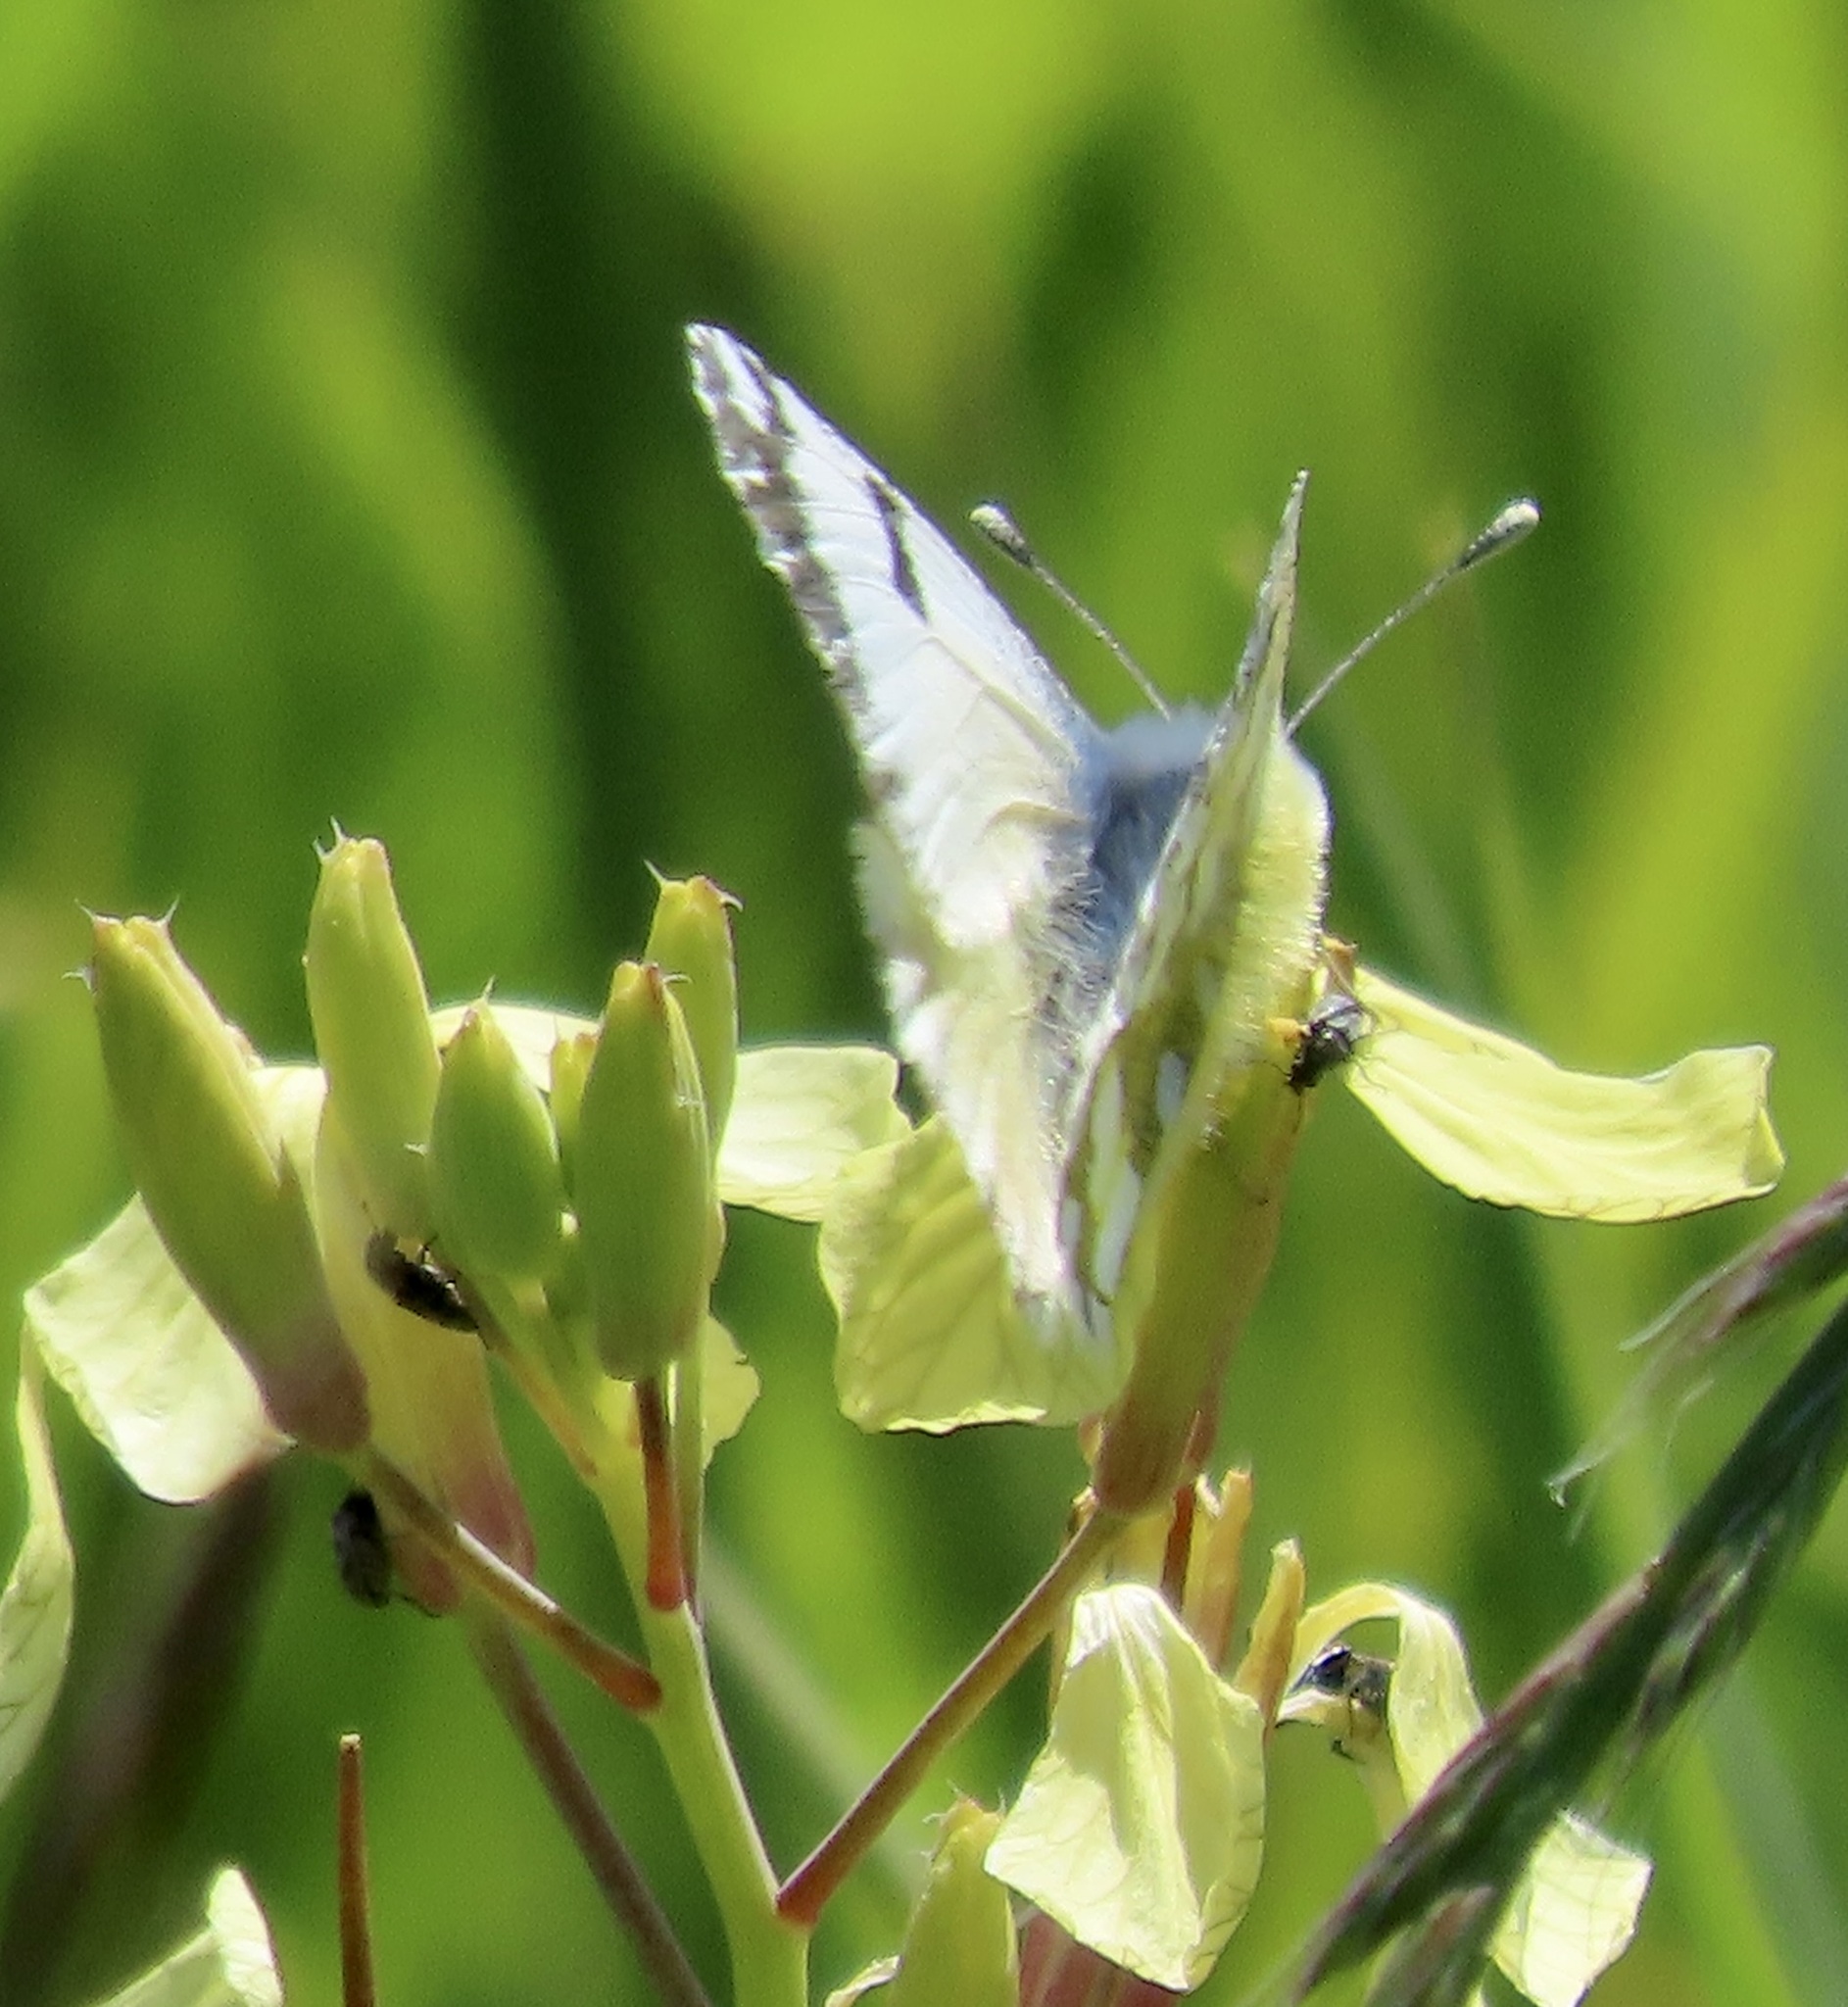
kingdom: Animalia
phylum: Arthropoda
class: Insecta
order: Lepidoptera
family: Pieridae
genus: Euchloe
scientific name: Euchloe ausonides
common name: Creamy marblewing
